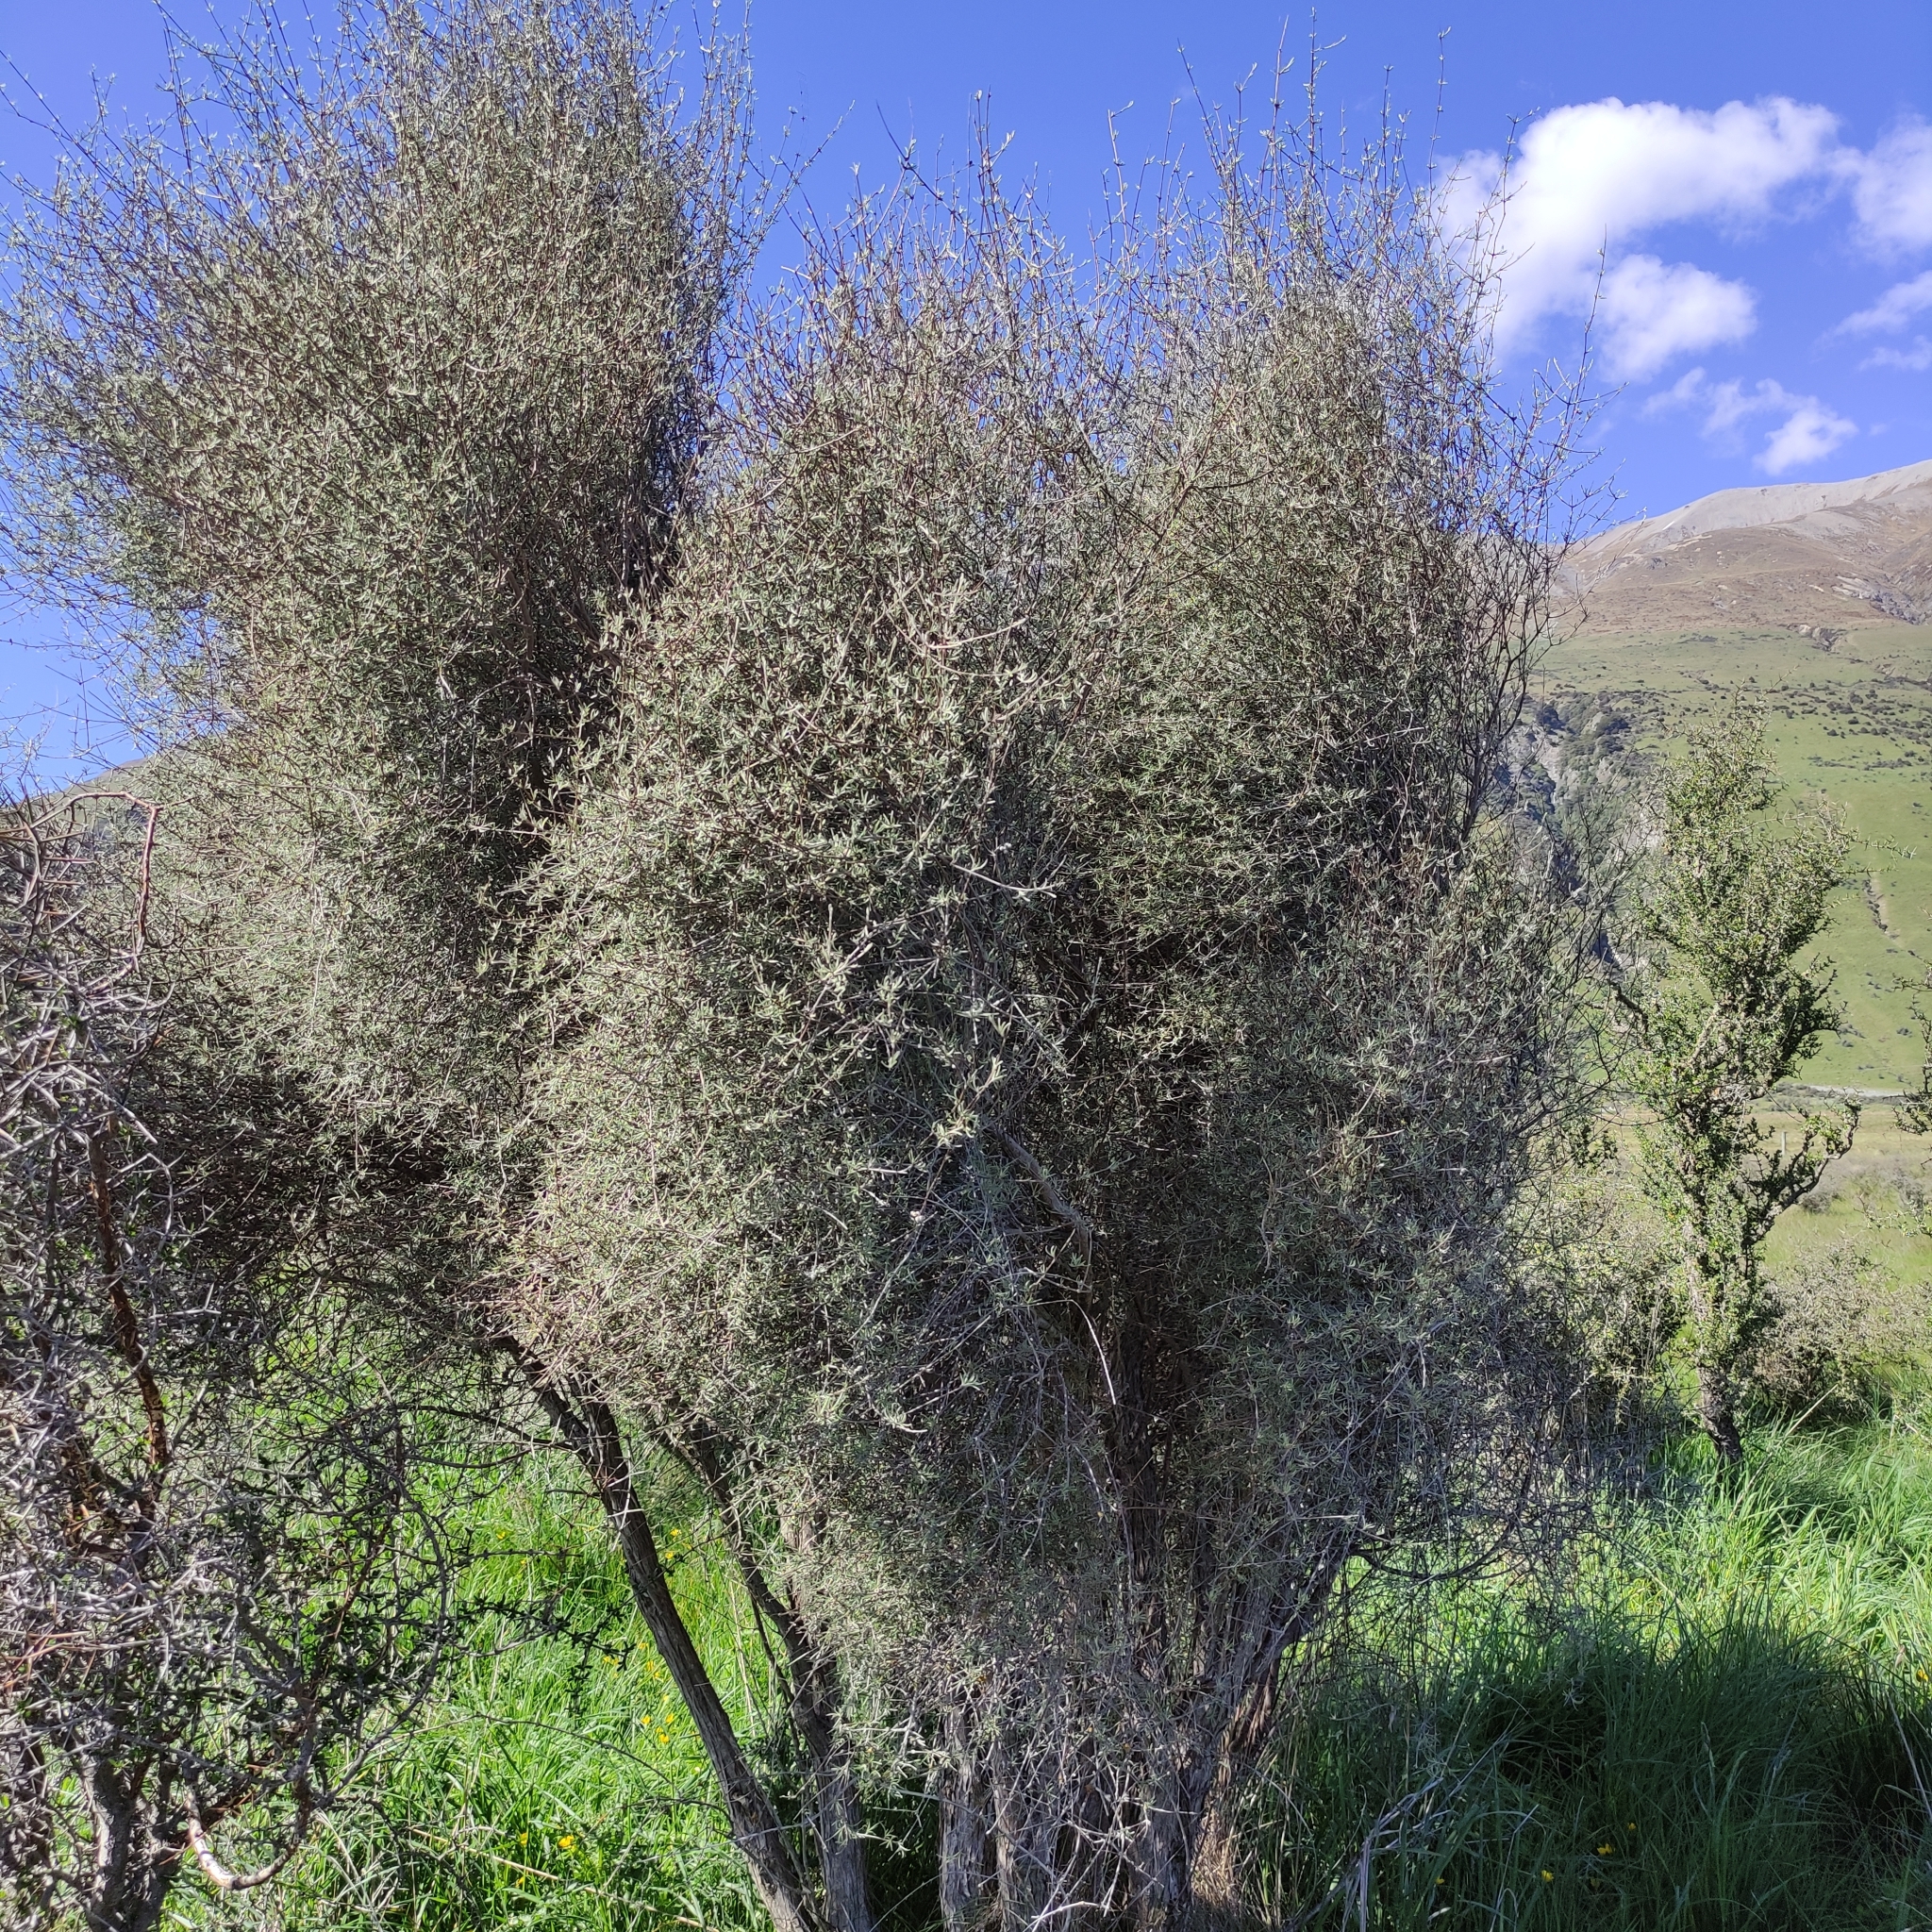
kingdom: Plantae
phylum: Tracheophyta
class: Magnoliopsida
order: Asterales
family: Asteraceae
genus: Olearia
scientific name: Olearia lineata
